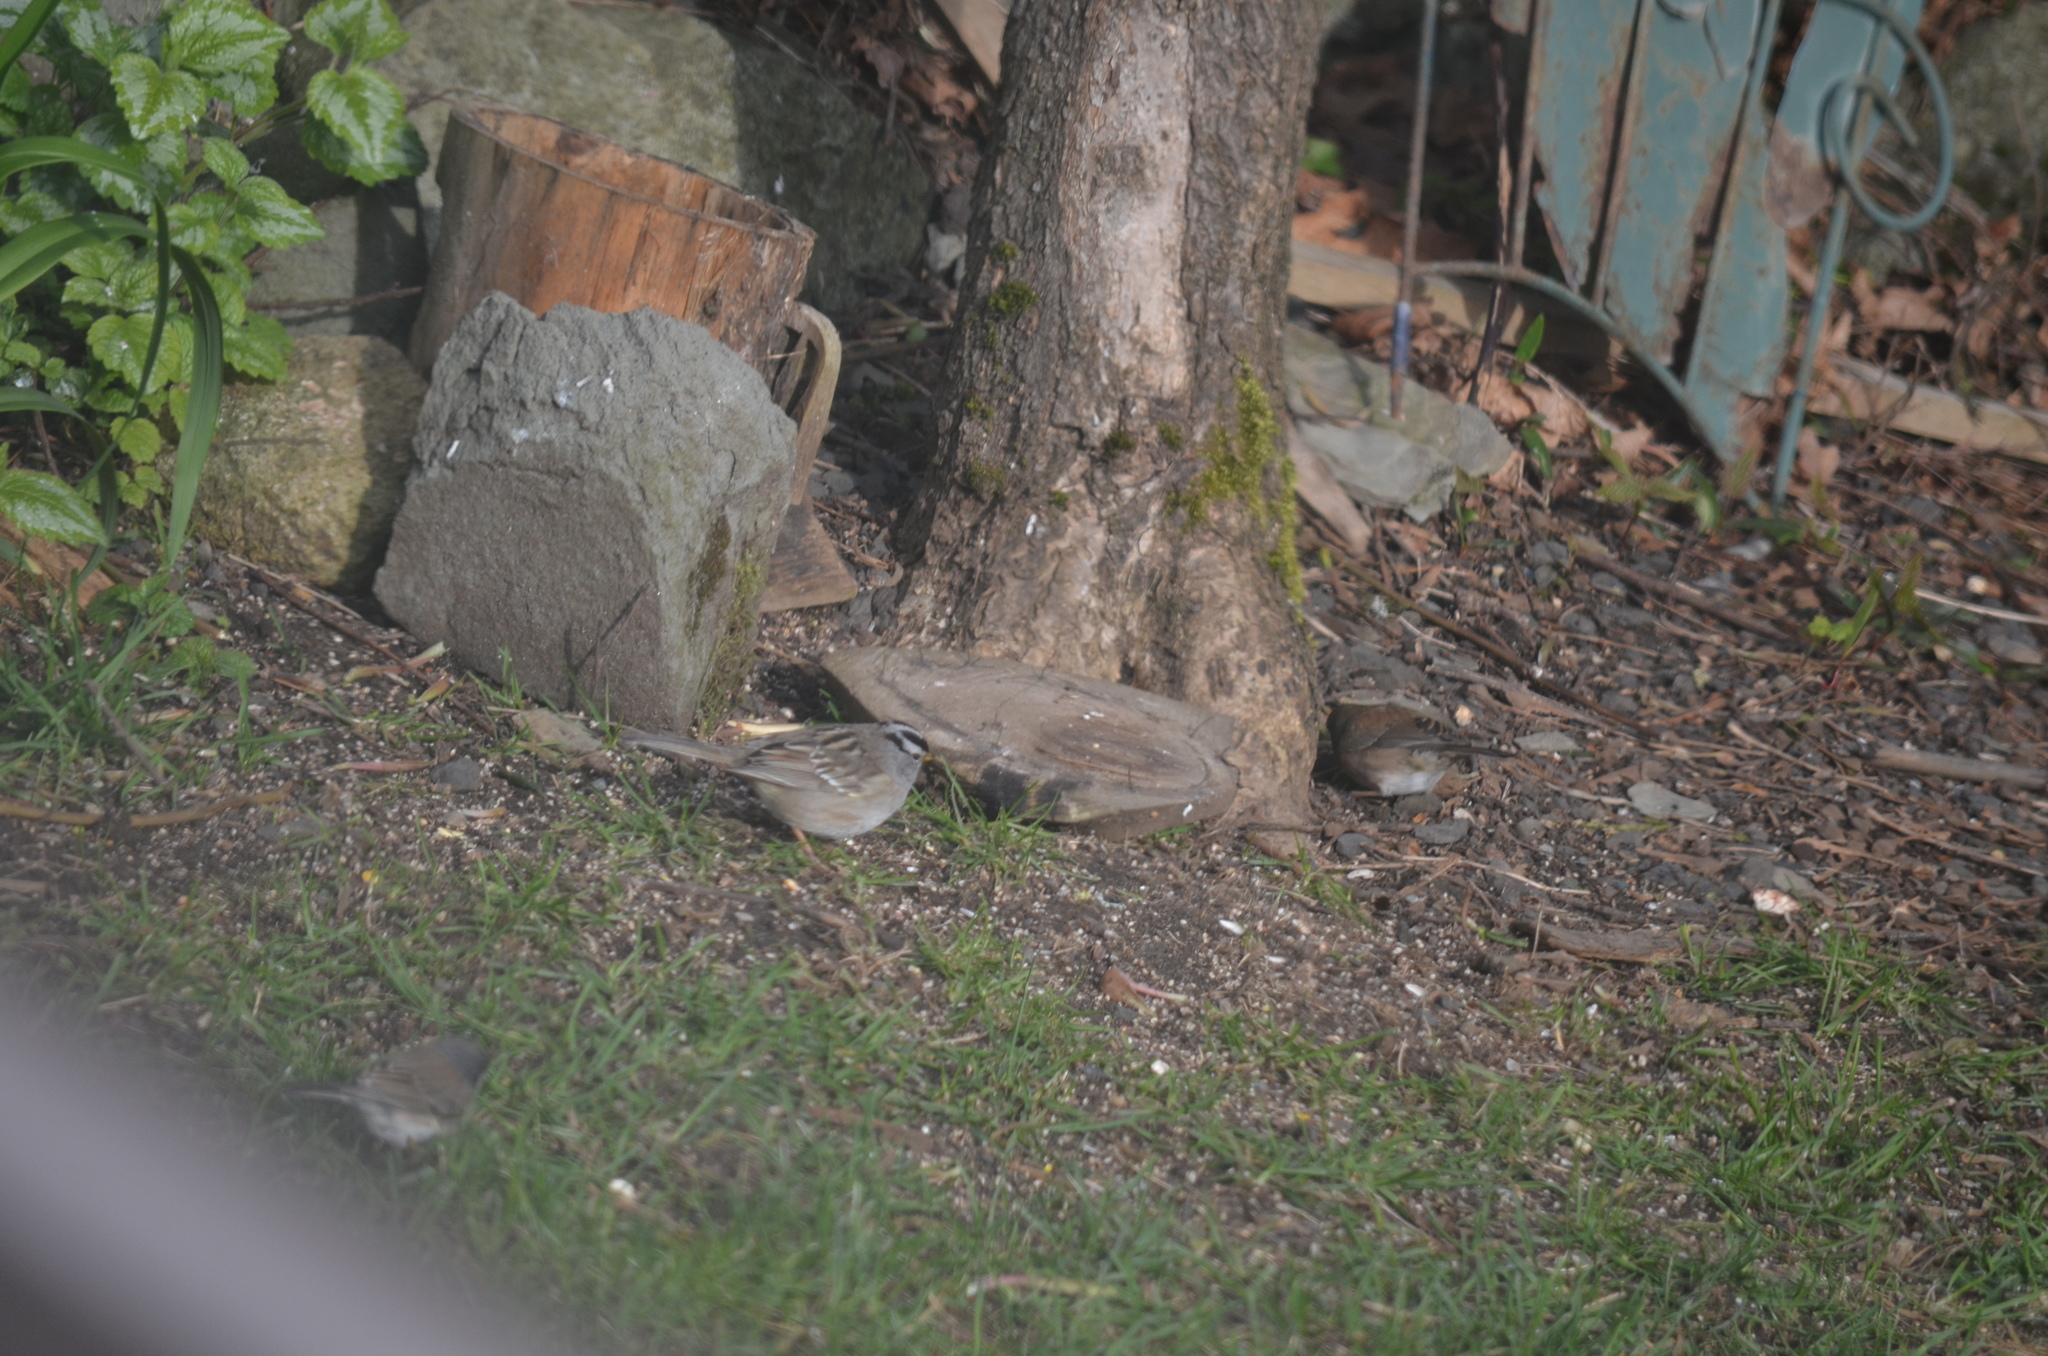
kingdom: Animalia
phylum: Chordata
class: Aves
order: Passeriformes
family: Passerellidae
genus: Zonotrichia
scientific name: Zonotrichia leucophrys
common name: White-crowned sparrow
